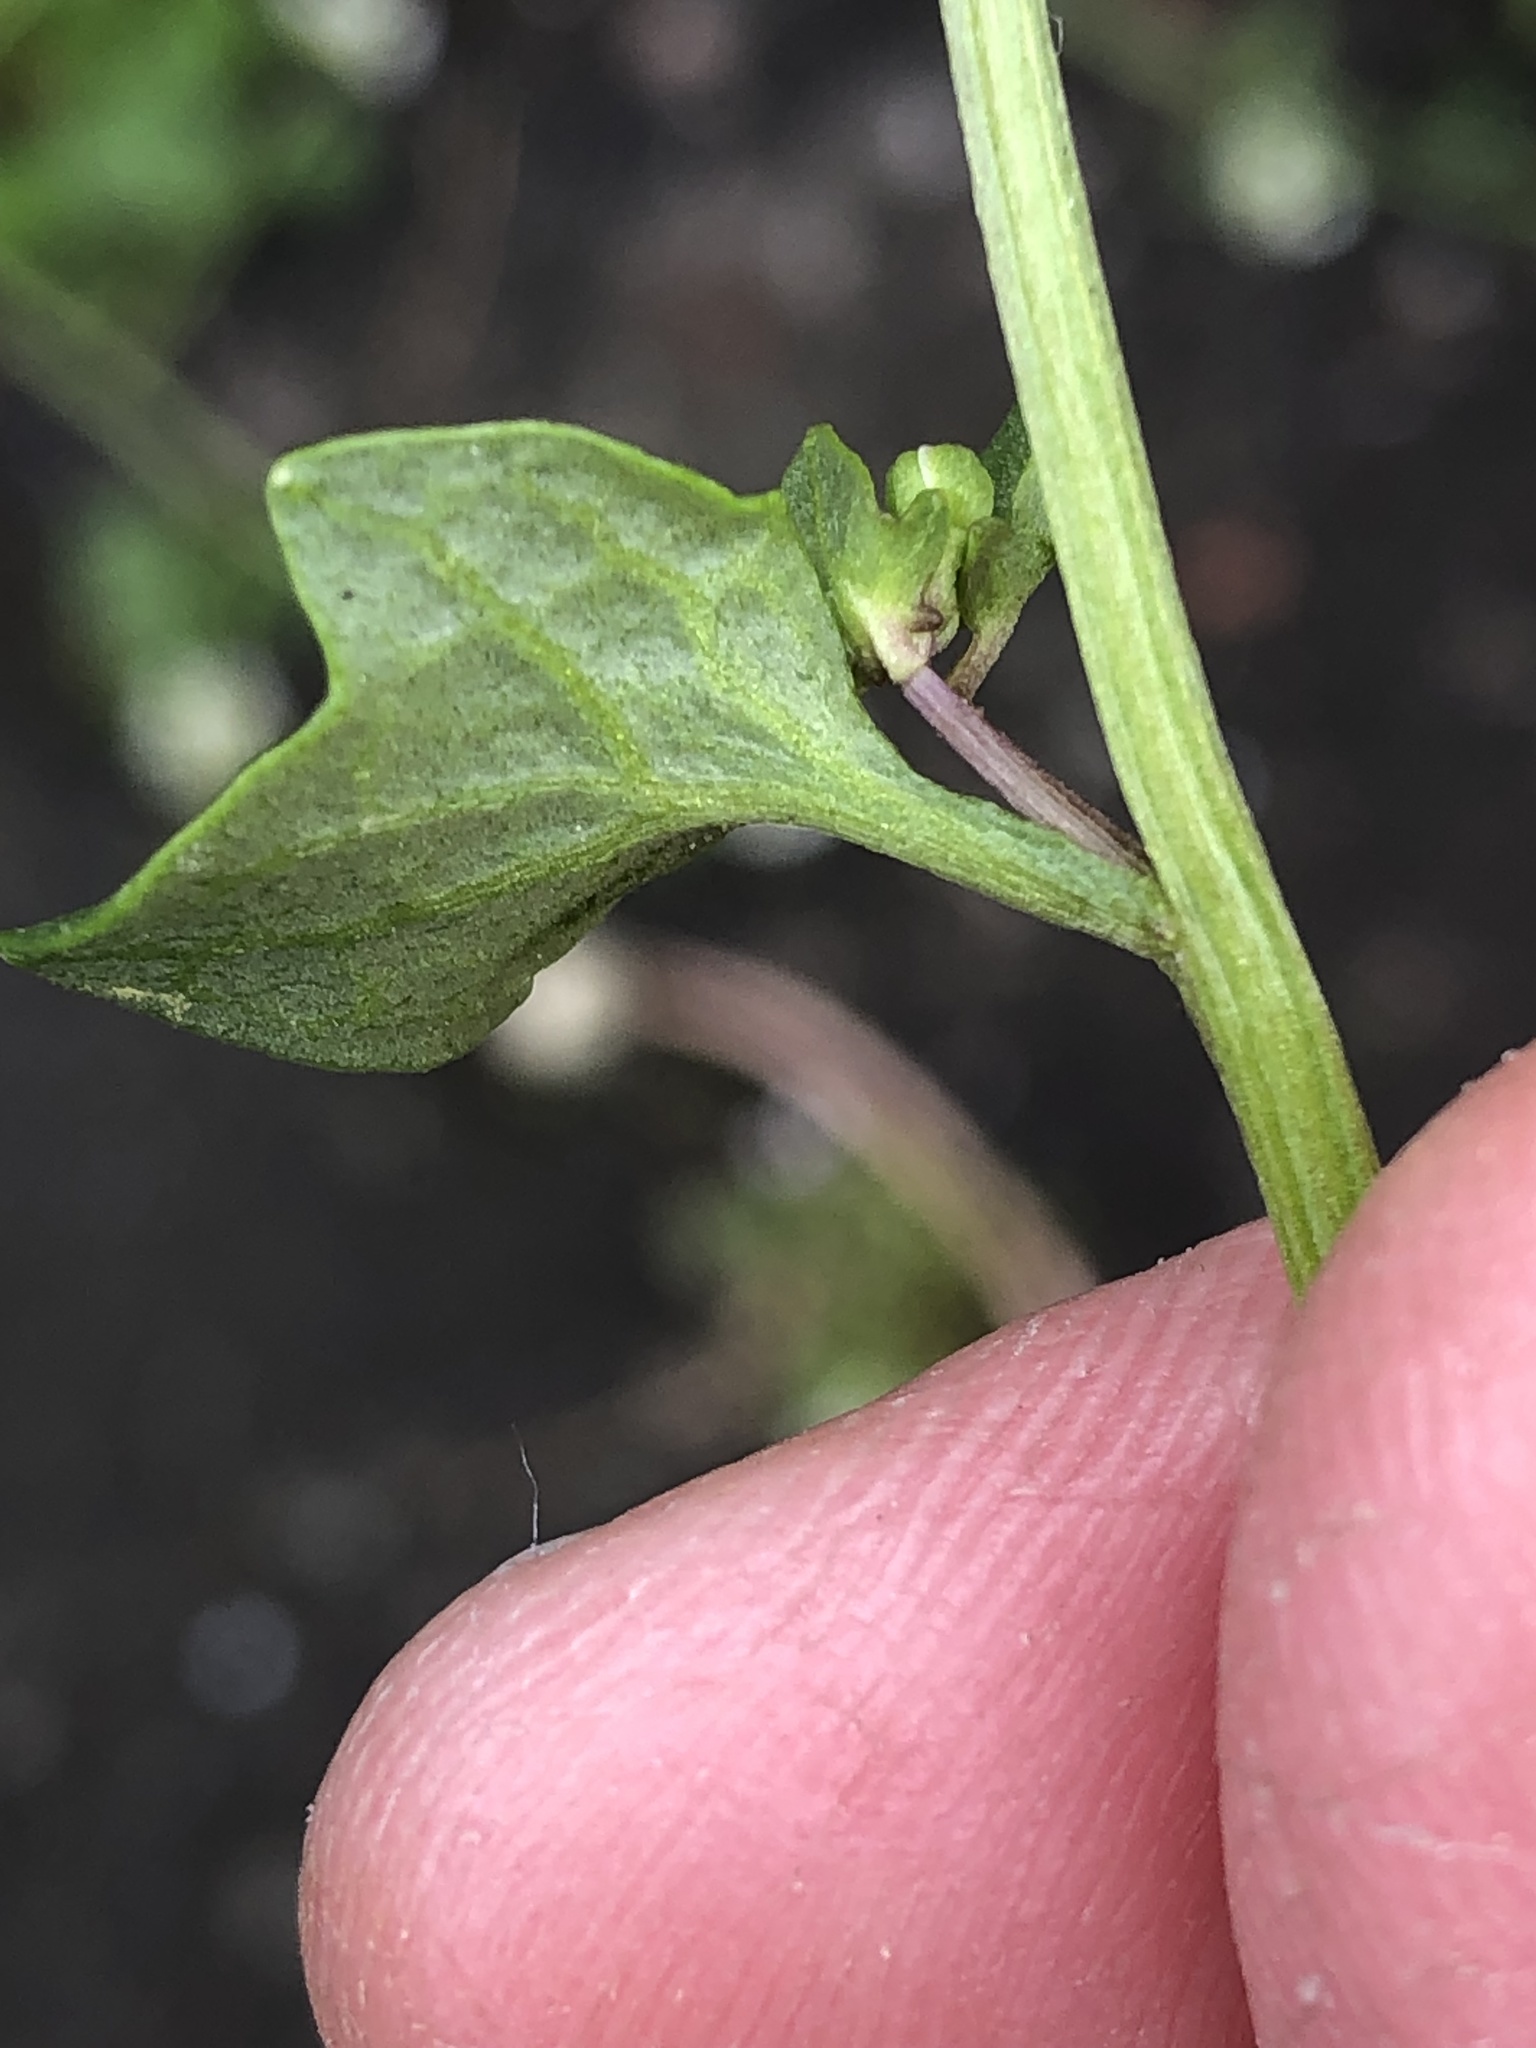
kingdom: Plantae
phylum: Tracheophyta
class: Magnoliopsida
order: Brassicales
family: Brassicaceae
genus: Cochlearia
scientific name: Cochlearia danica
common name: Early scurvygrass
